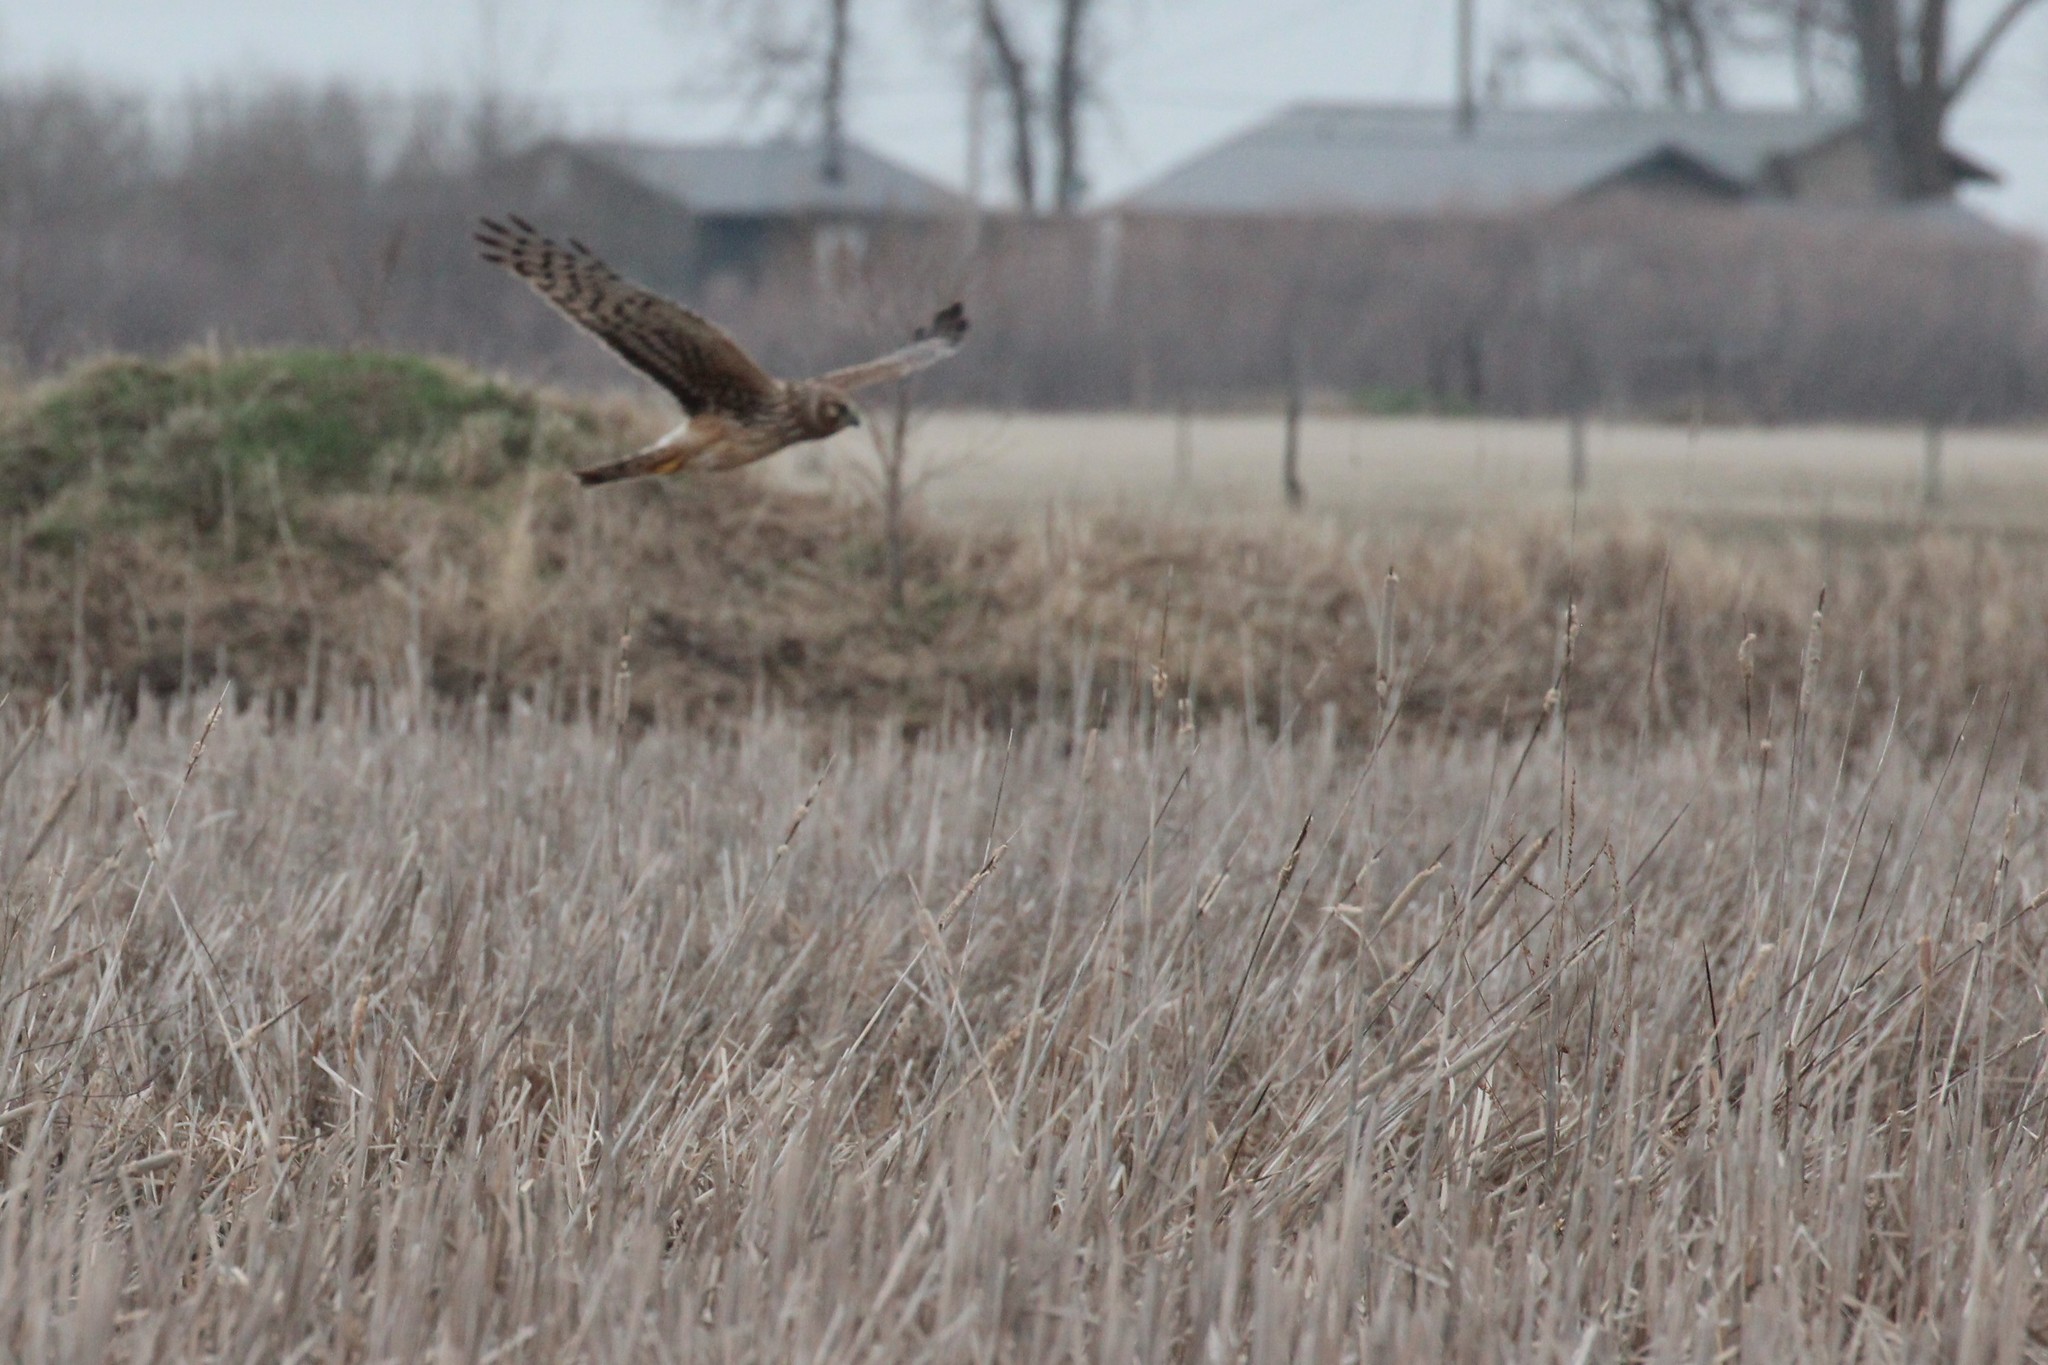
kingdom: Animalia
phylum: Chordata
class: Aves
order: Accipitriformes
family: Accipitridae
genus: Circus
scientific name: Circus cyaneus
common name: Hen harrier
